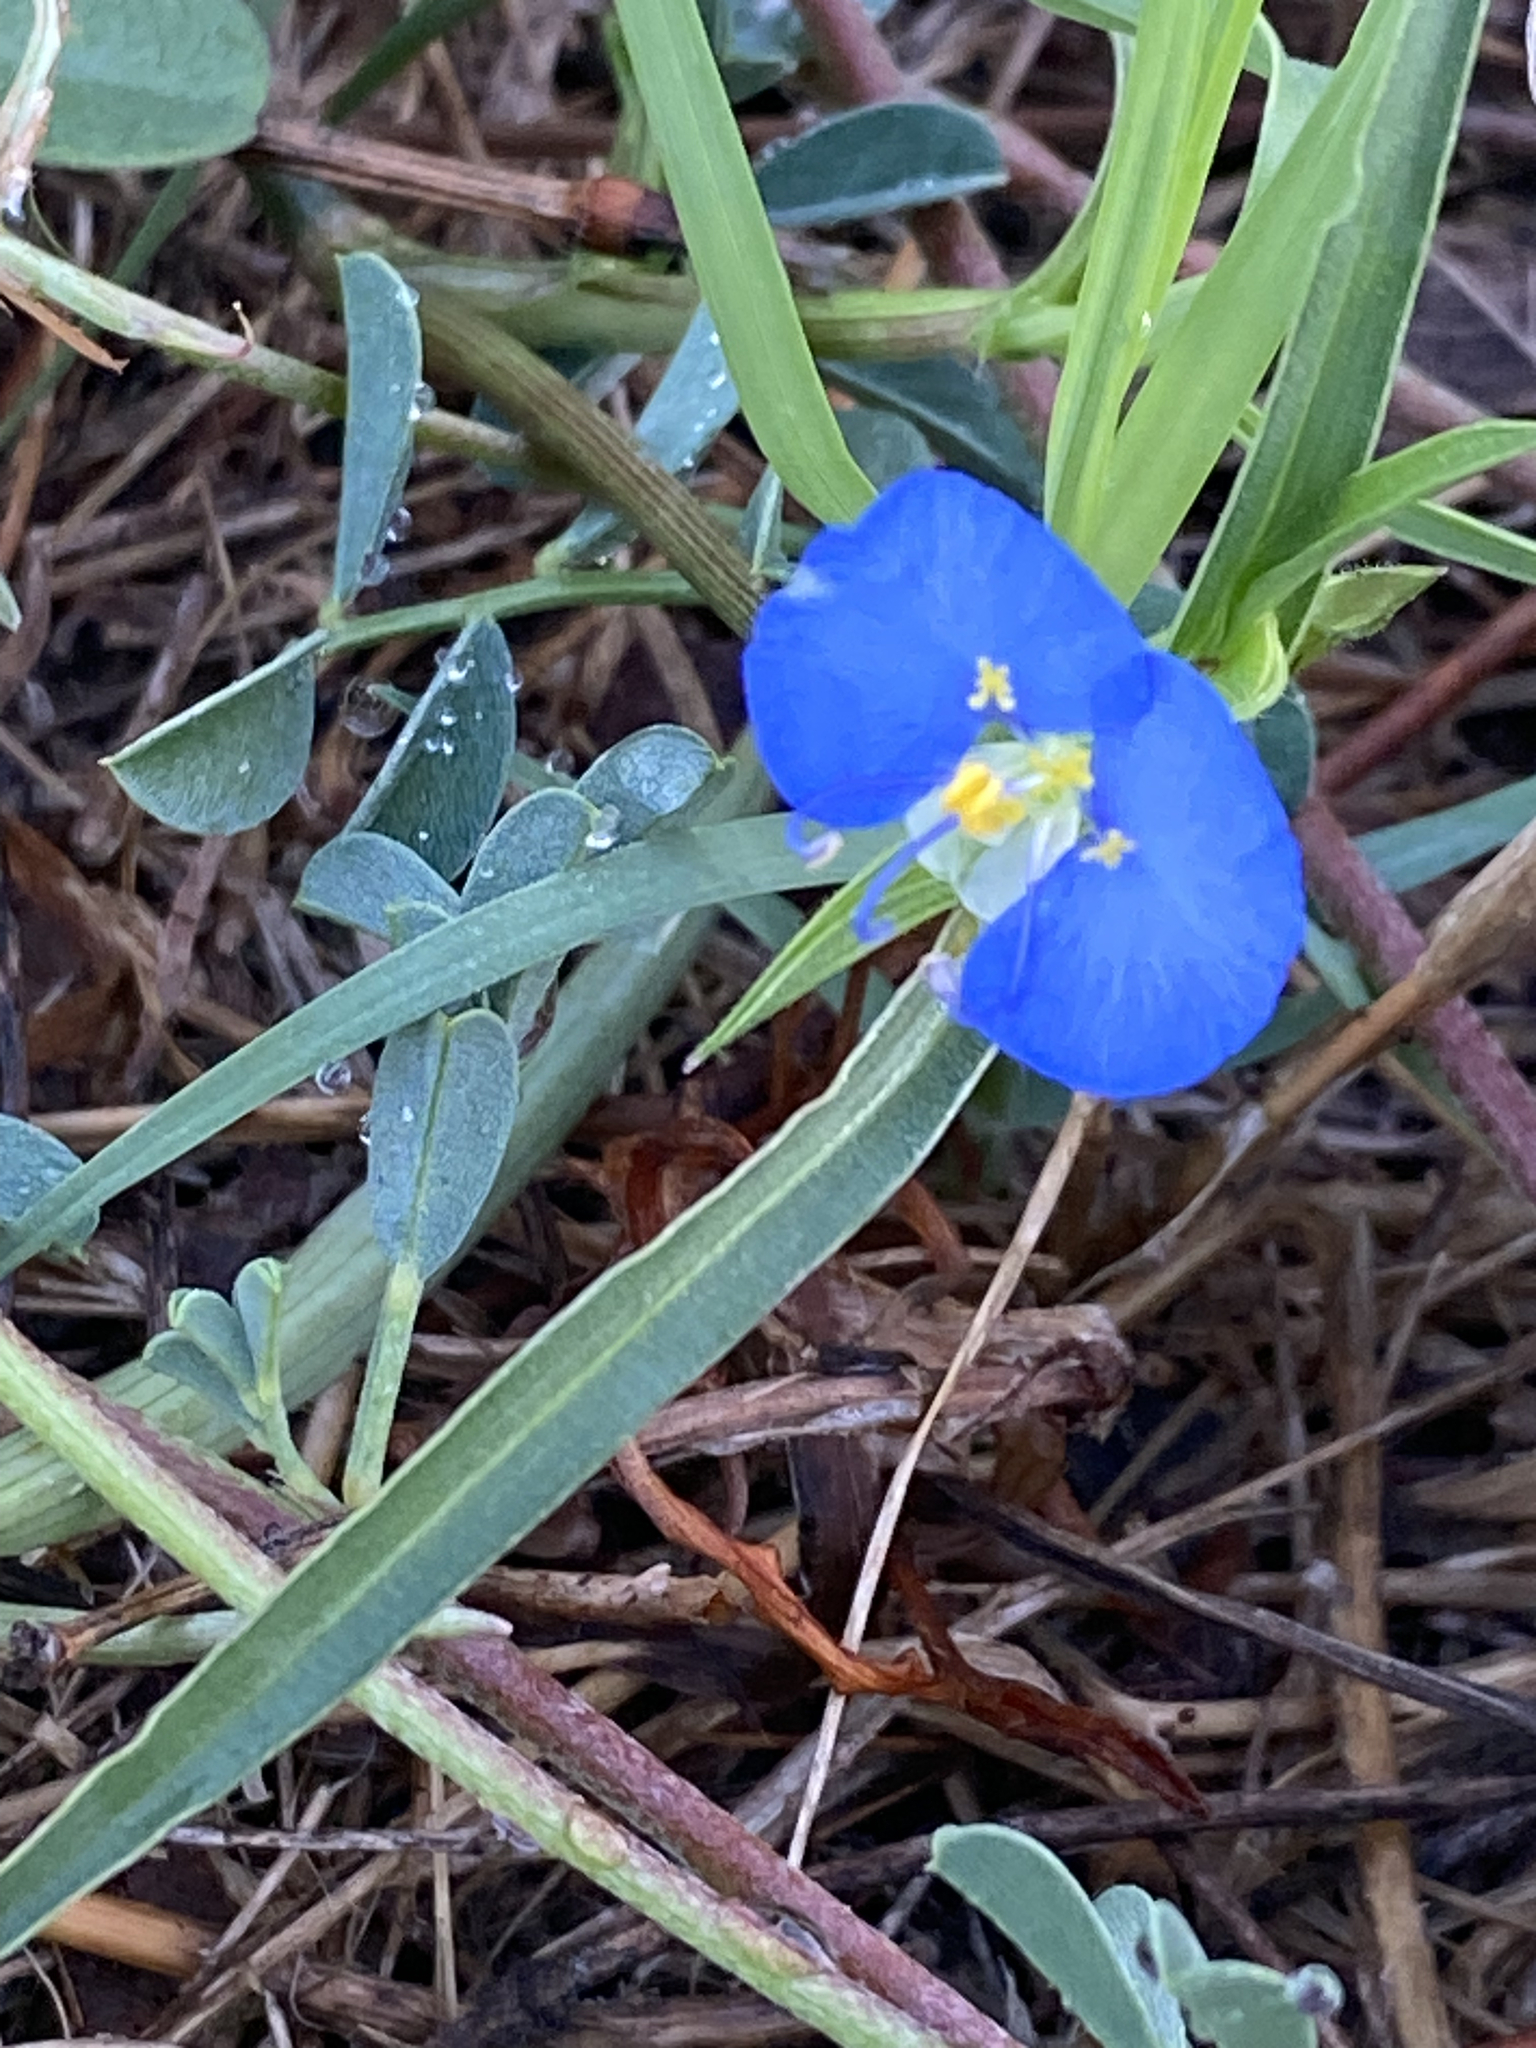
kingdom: Plantae
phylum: Tracheophyta
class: Liliopsida
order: Commelinales
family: Commelinaceae
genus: Commelina
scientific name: Commelina erecta
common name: Blousel blommetjie
